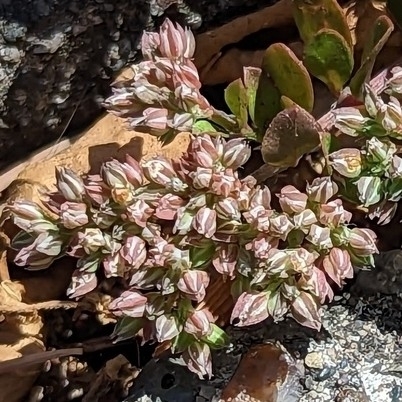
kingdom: Plantae
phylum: Tracheophyta
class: Magnoliopsida
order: Caryophyllales
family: Caryophyllaceae
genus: Polycarpon
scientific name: Polycarpon tetraphyllum
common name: Four-leaved all-seed
